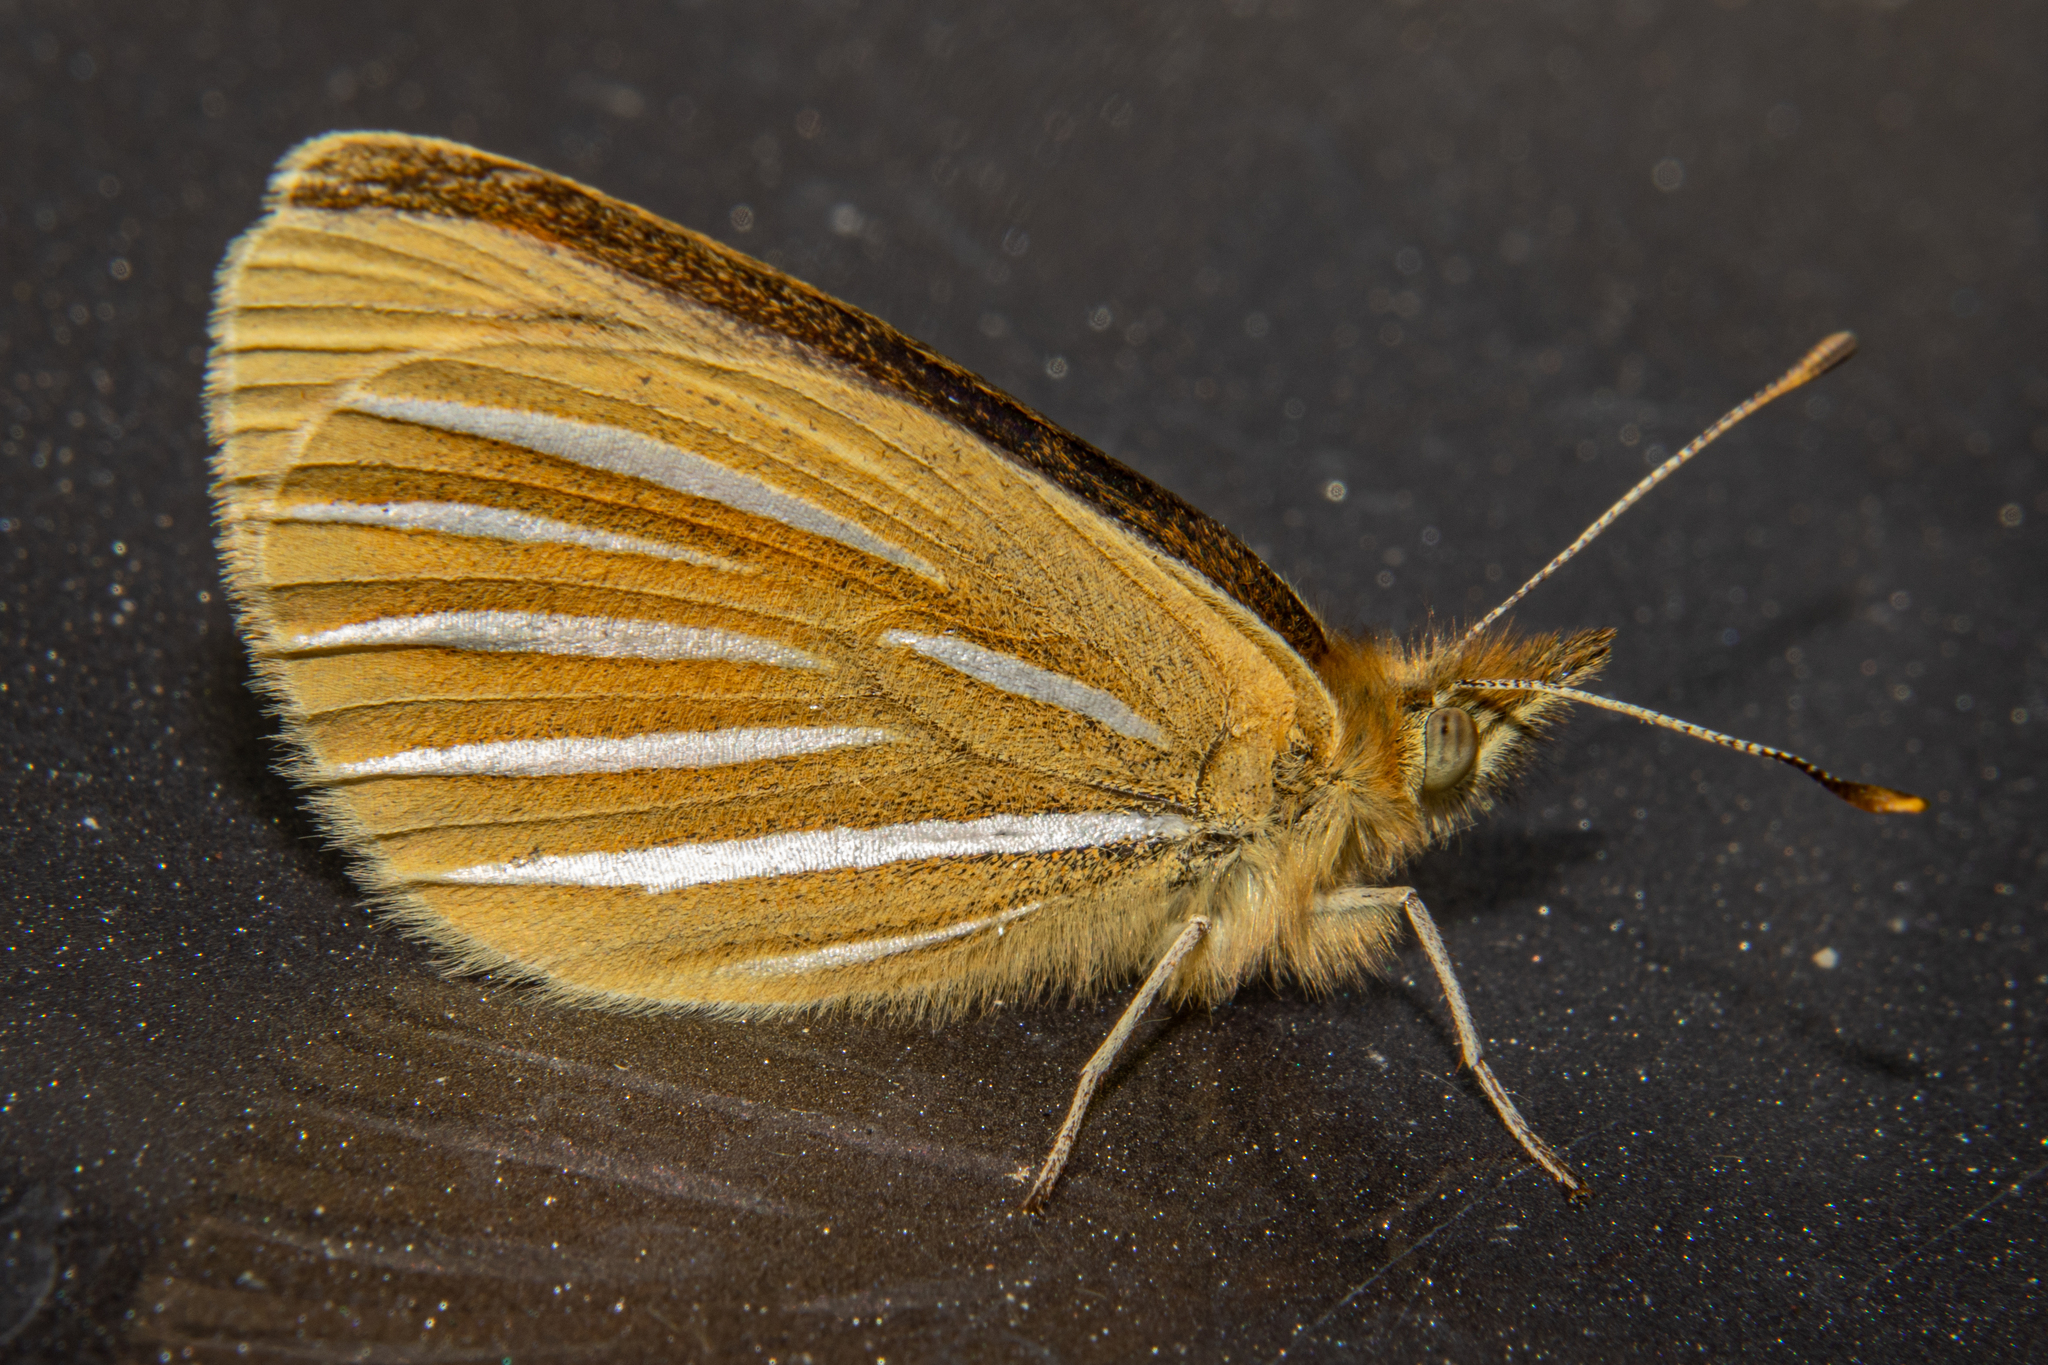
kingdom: Animalia
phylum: Arthropoda
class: Insecta
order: Lepidoptera
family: Nymphalidae
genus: Argyrophenga
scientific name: Argyrophenga janitae
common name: Janita's tussock
